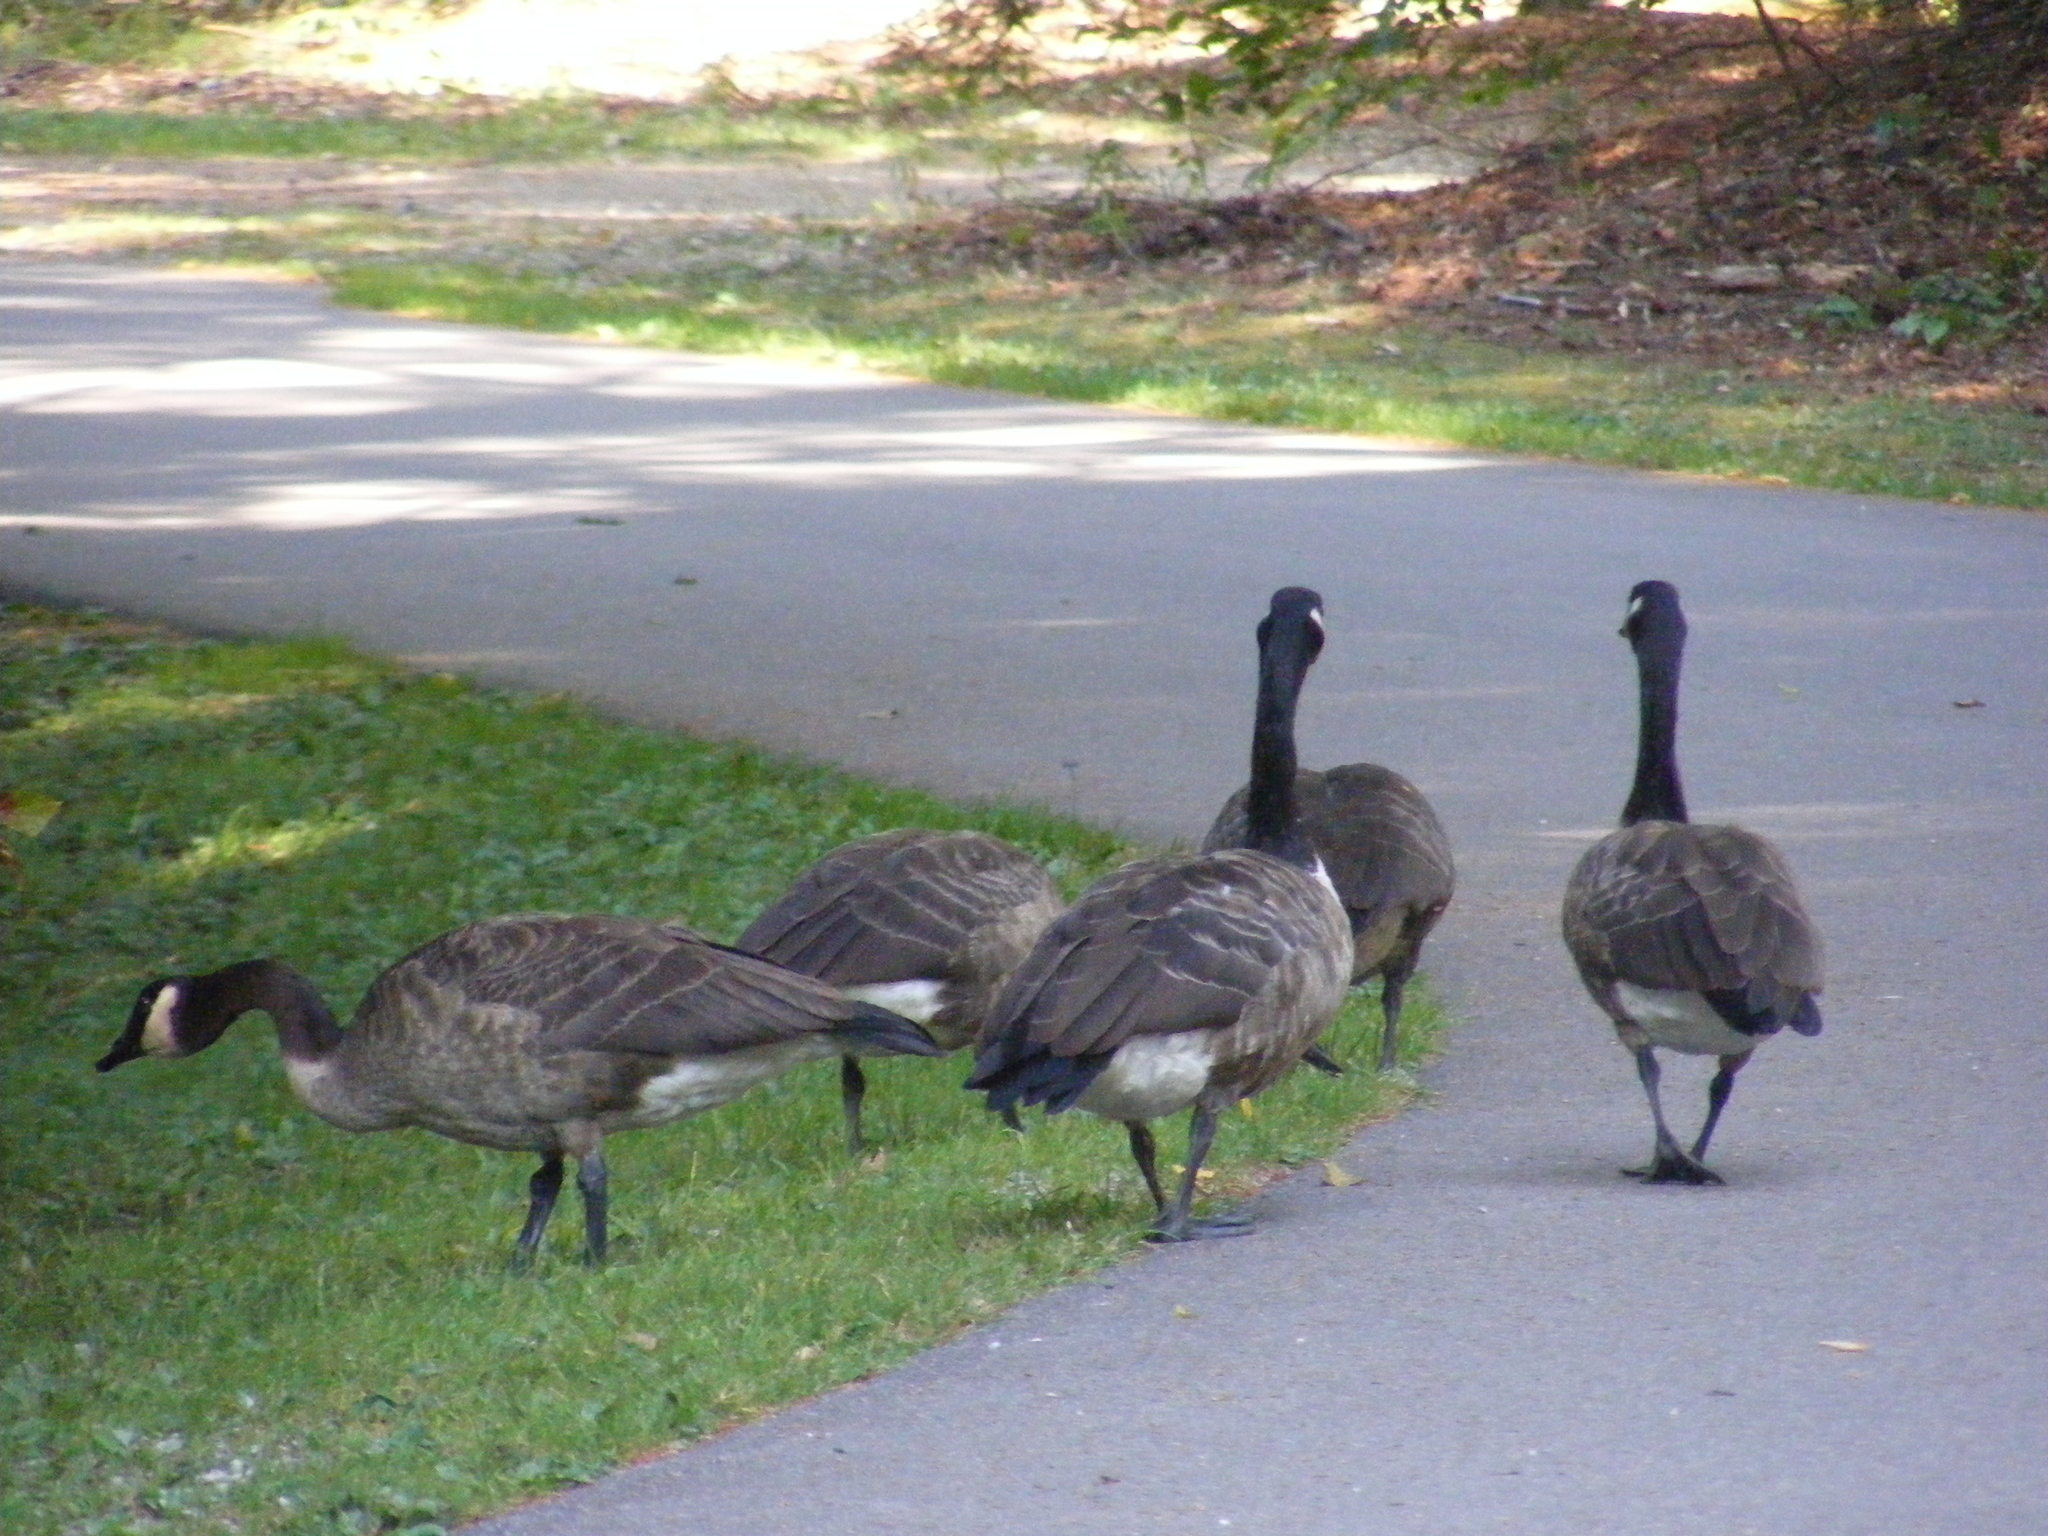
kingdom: Animalia
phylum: Chordata
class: Aves
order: Anseriformes
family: Anatidae
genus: Branta
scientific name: Branta canadensis
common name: Canada goose
